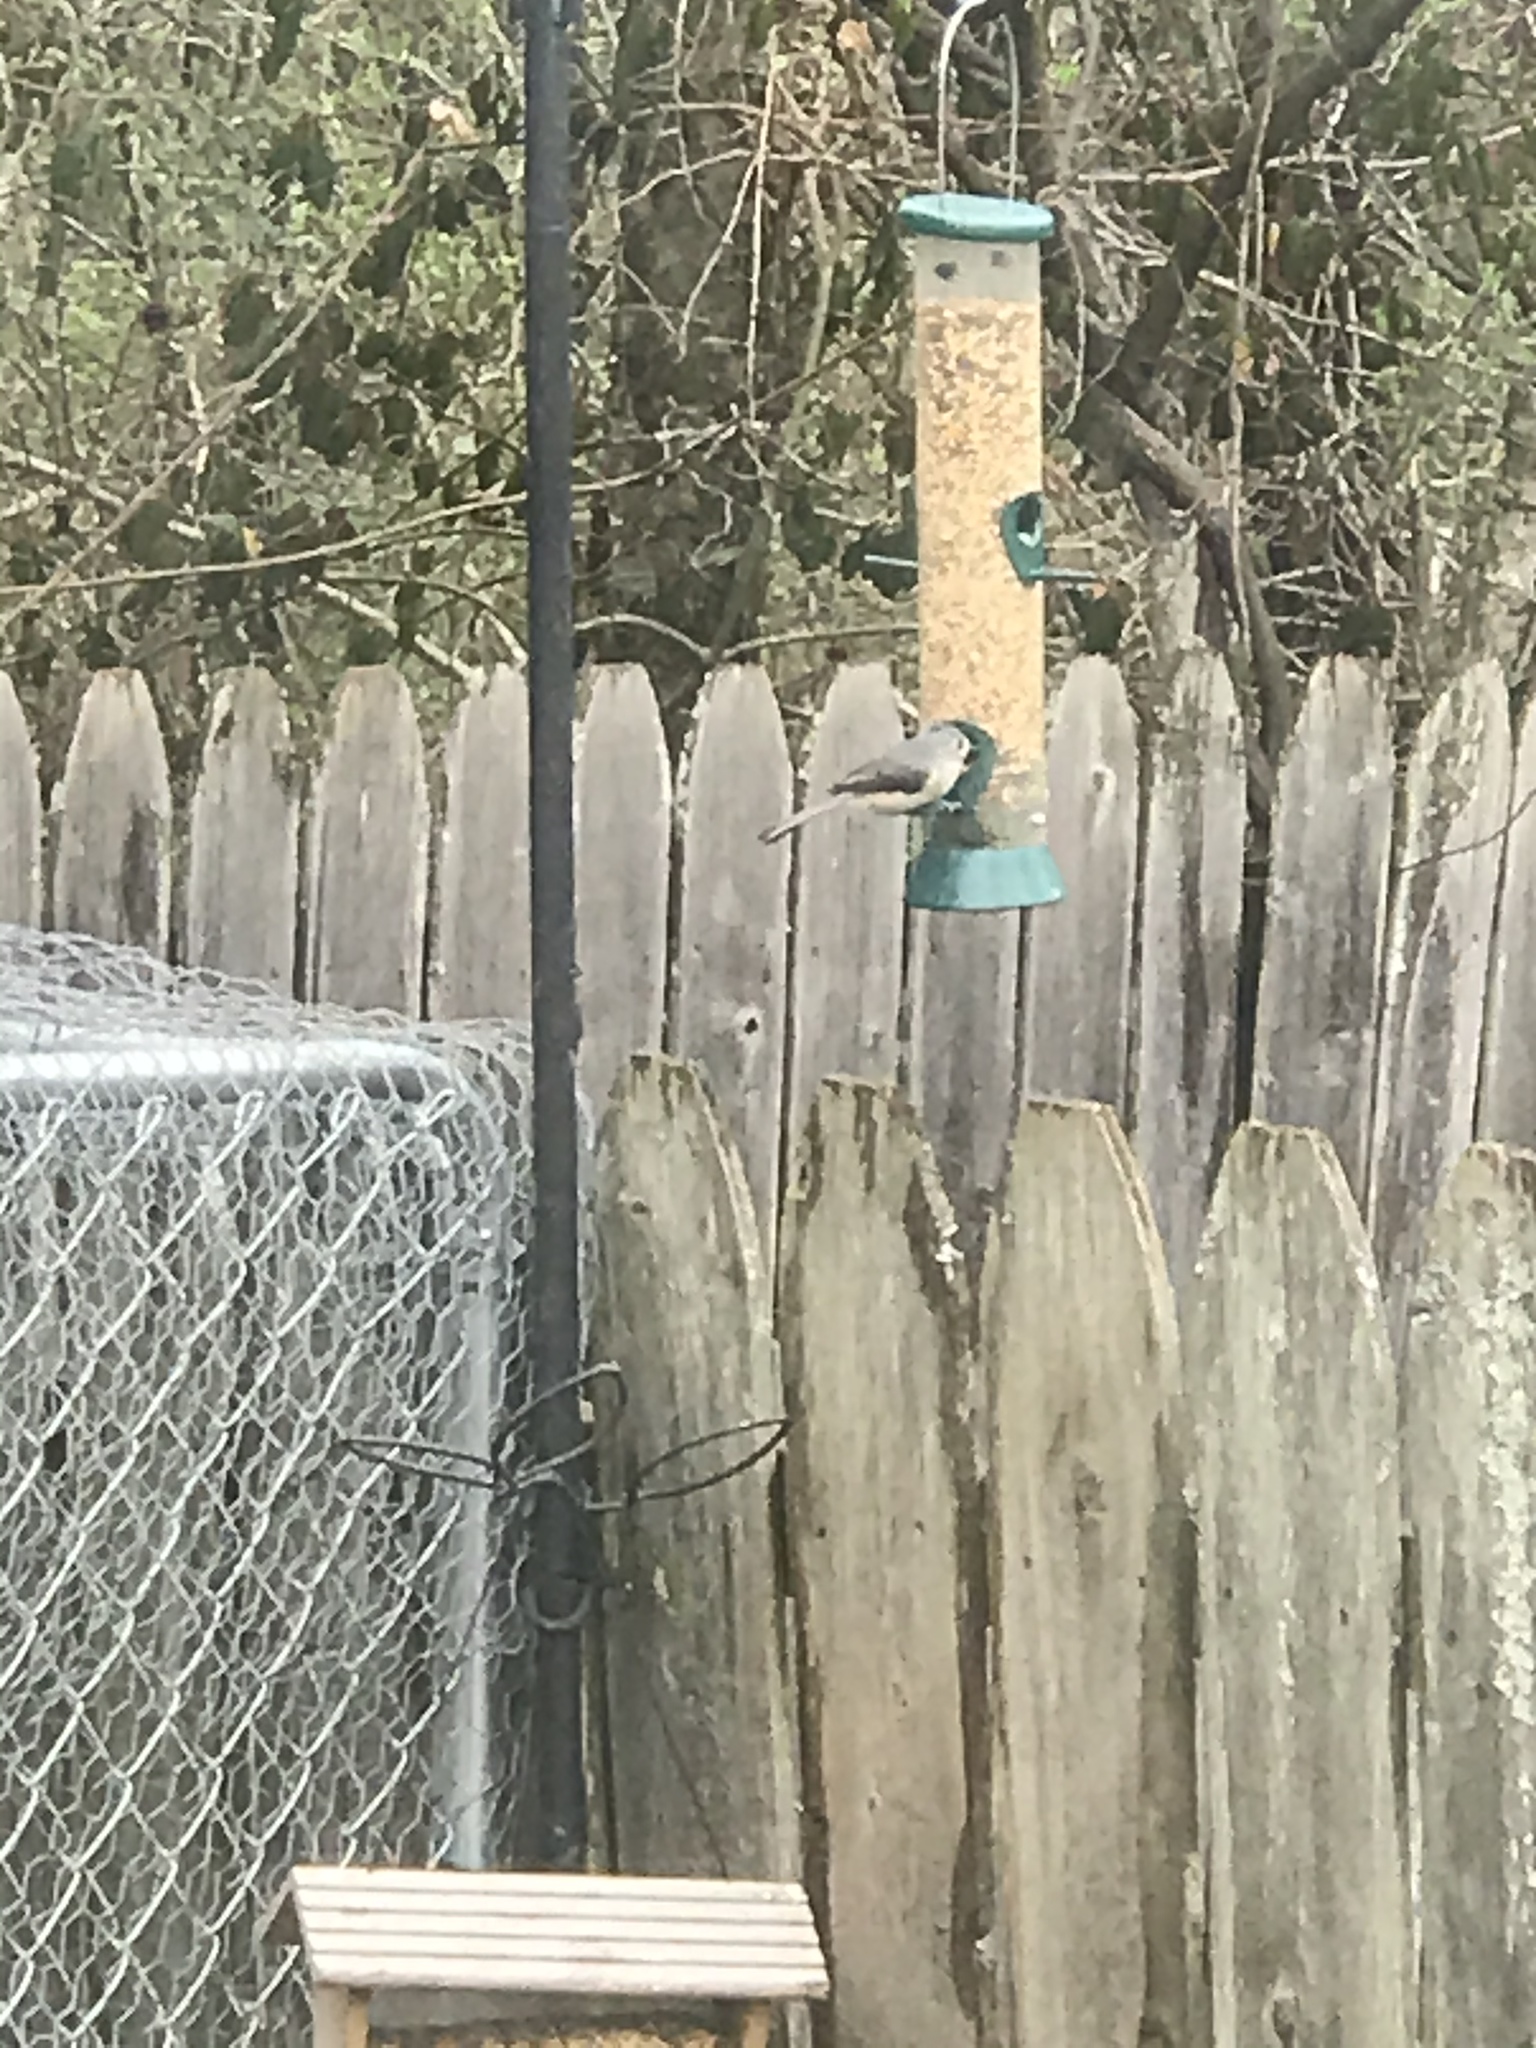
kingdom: Animalia
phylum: Chordata
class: Aves
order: Passeriformes
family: Paridae
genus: Baeolophus
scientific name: Baeolophus bicolor
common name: Tufted titmouse
